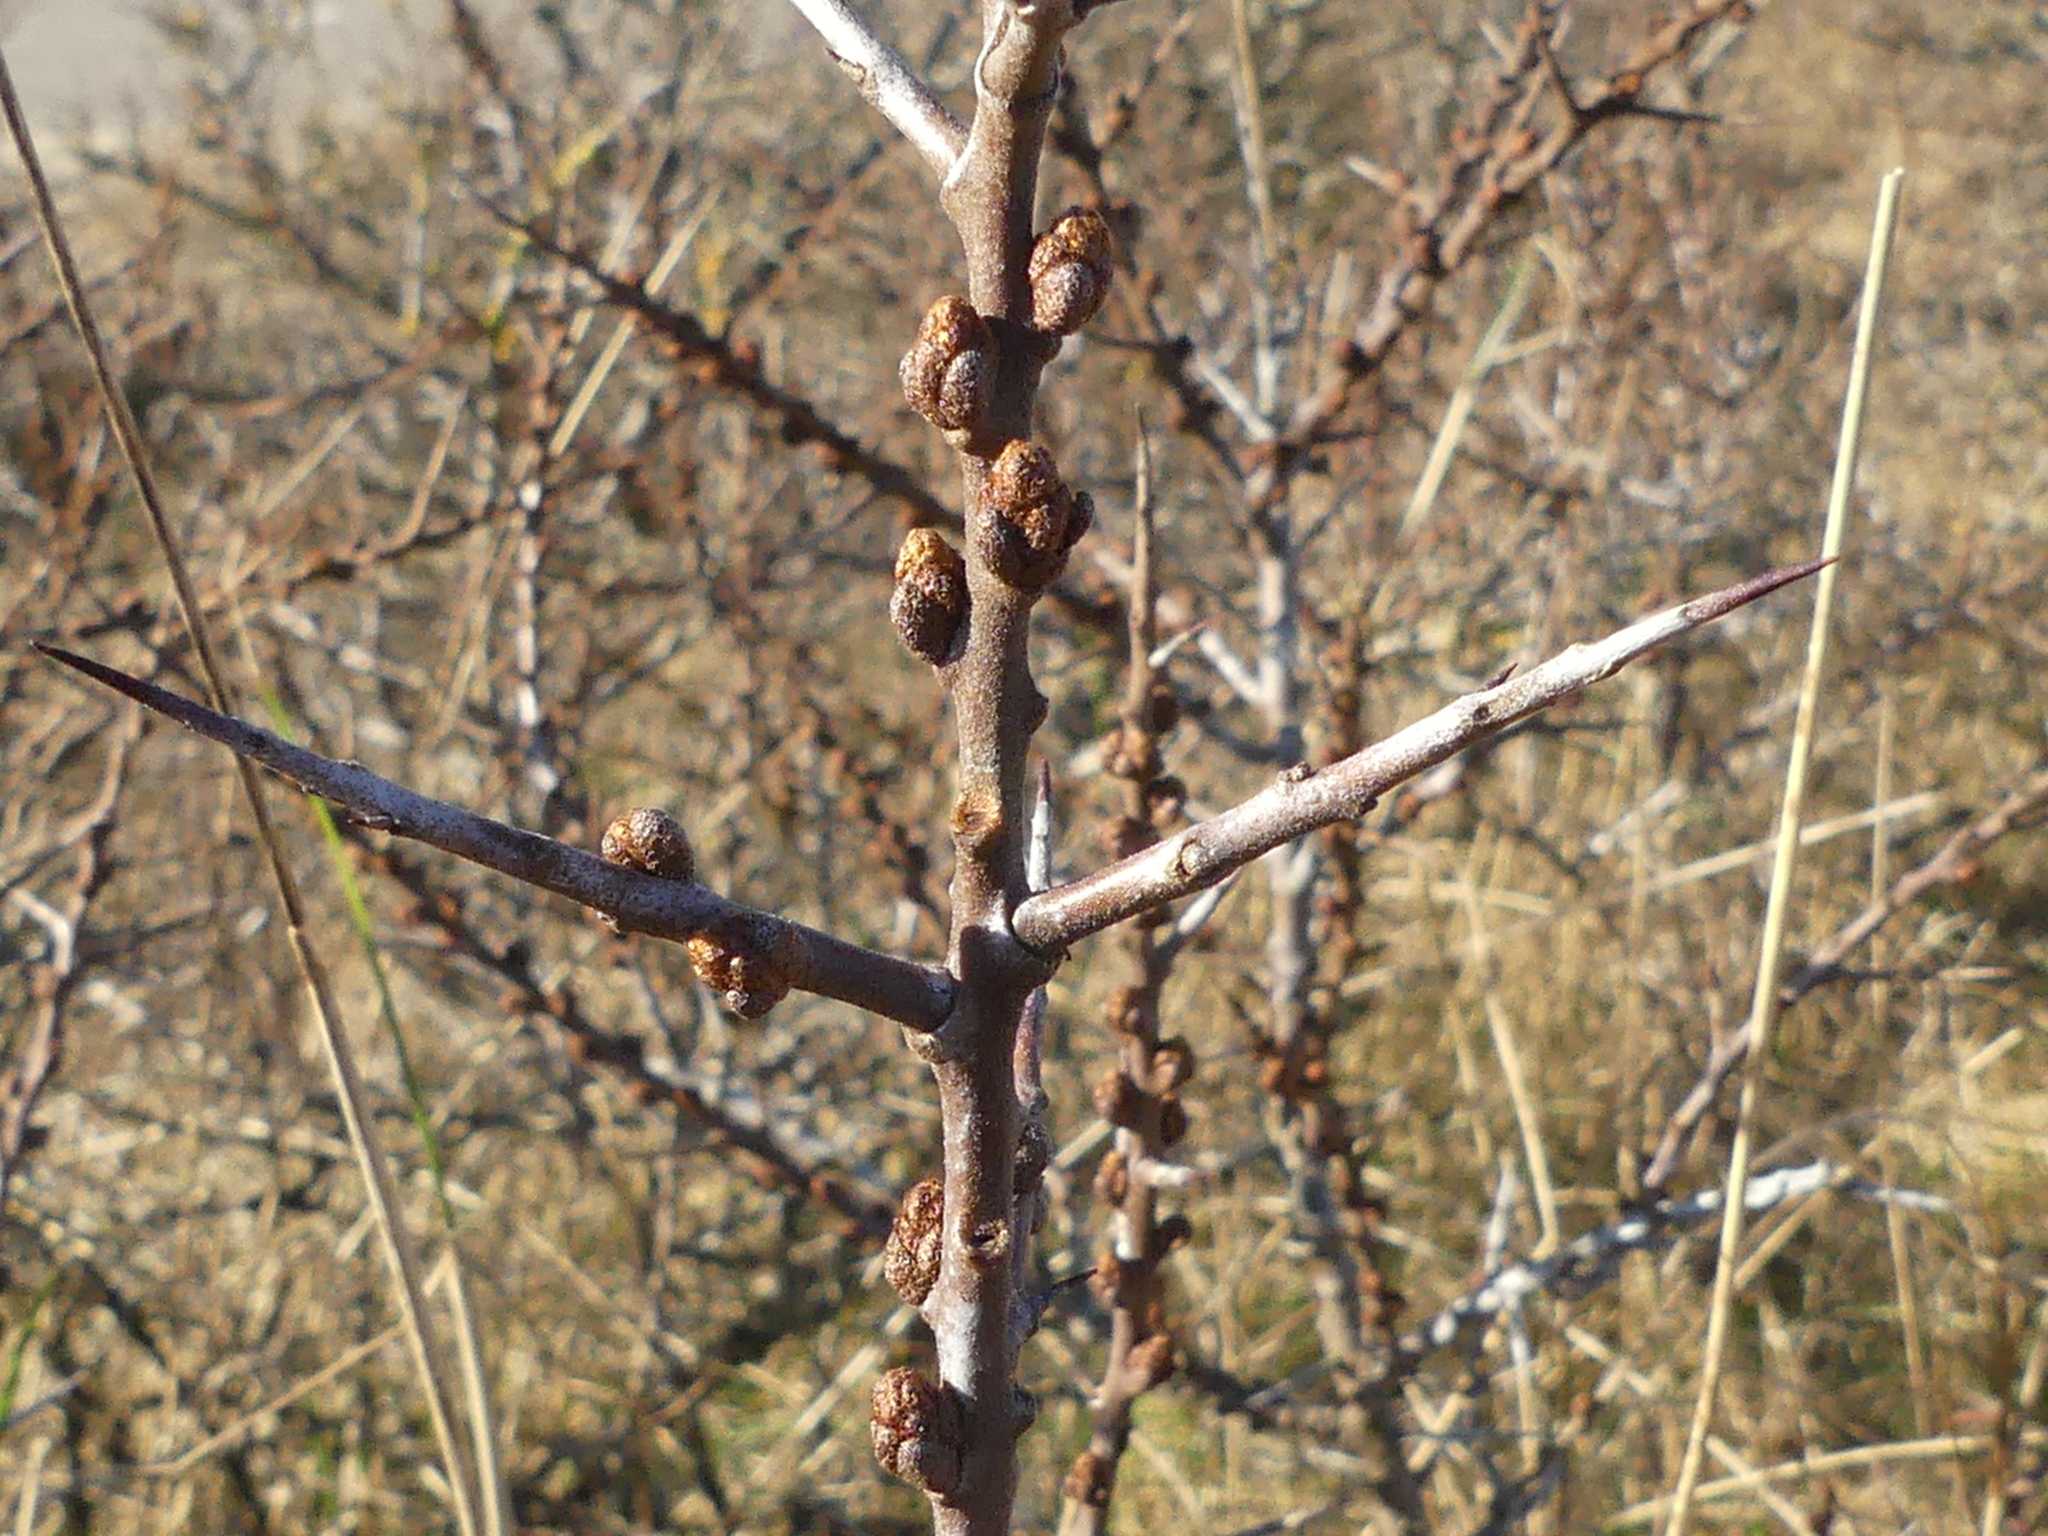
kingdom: Plantae
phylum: Tracheophyta
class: Magnoliopsida
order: Rosales
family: Elaeagnaceae
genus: Hippophae
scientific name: Hippophae rhamnoides
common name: Sea-buckthorn
